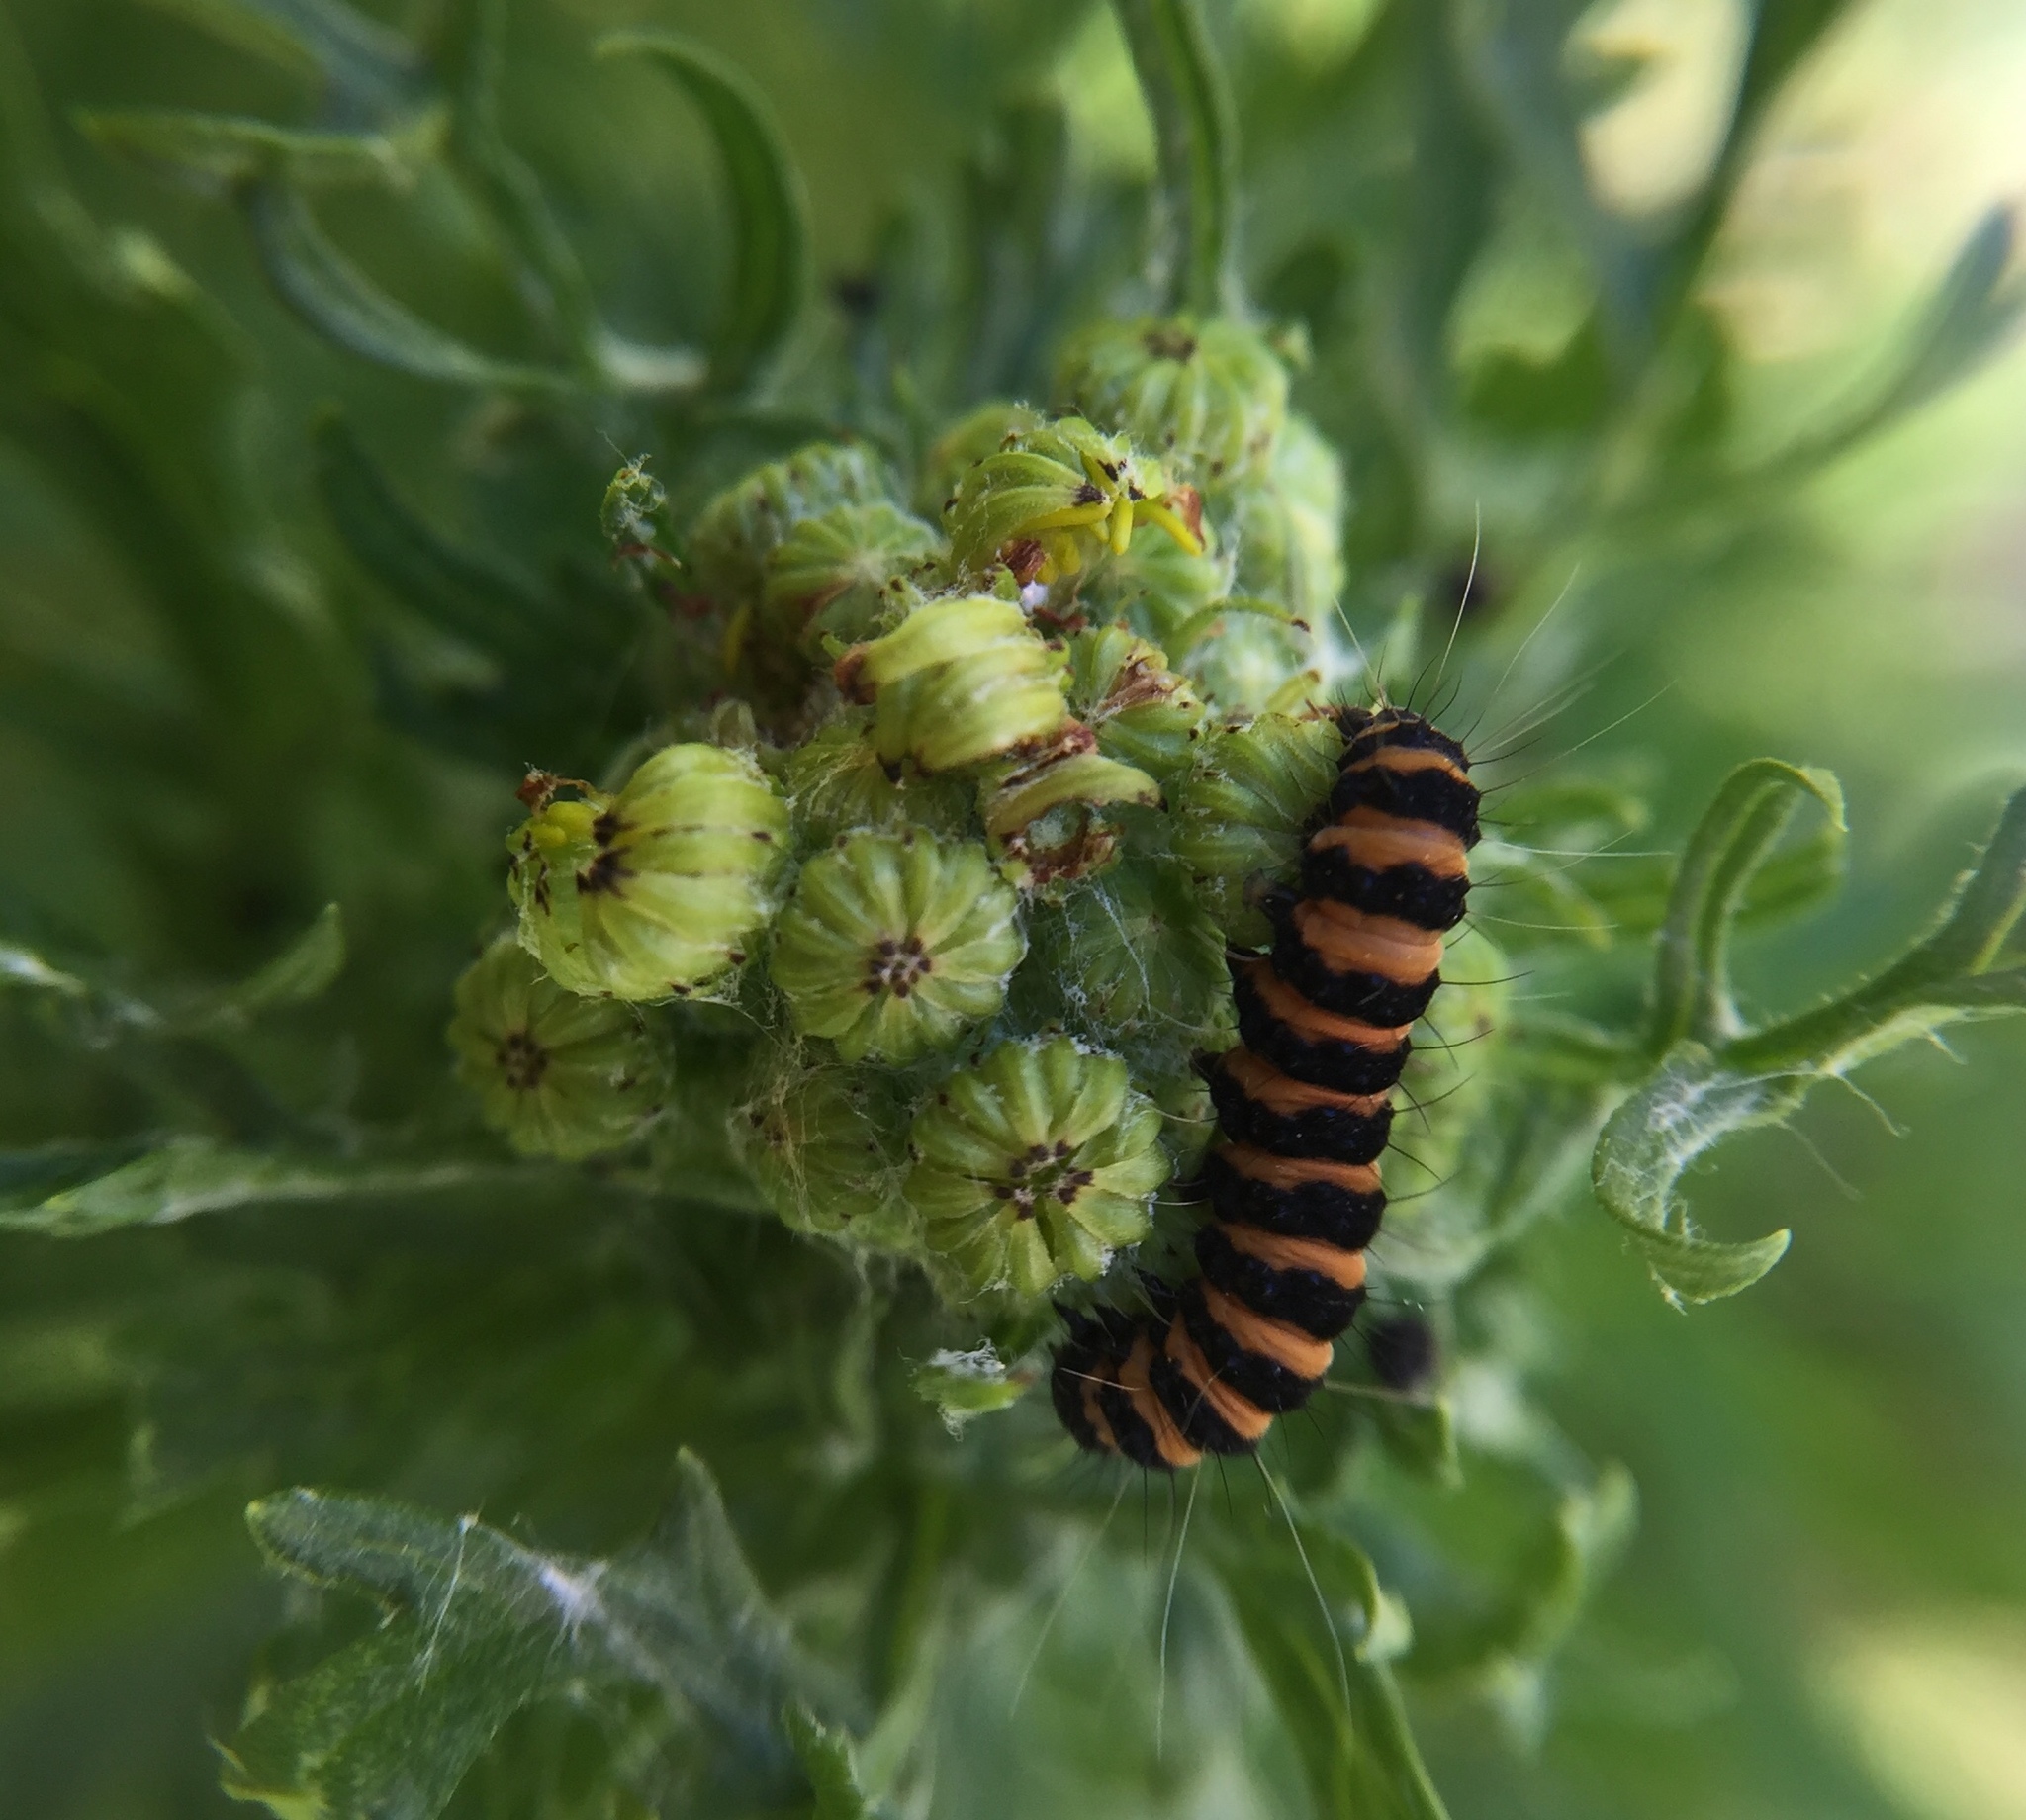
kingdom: Animalia
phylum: Arthropoda
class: Insecta
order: Lepidoptera
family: Erebidae
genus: Tyria
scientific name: Tyria jacobaeae
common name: Cinnabar
